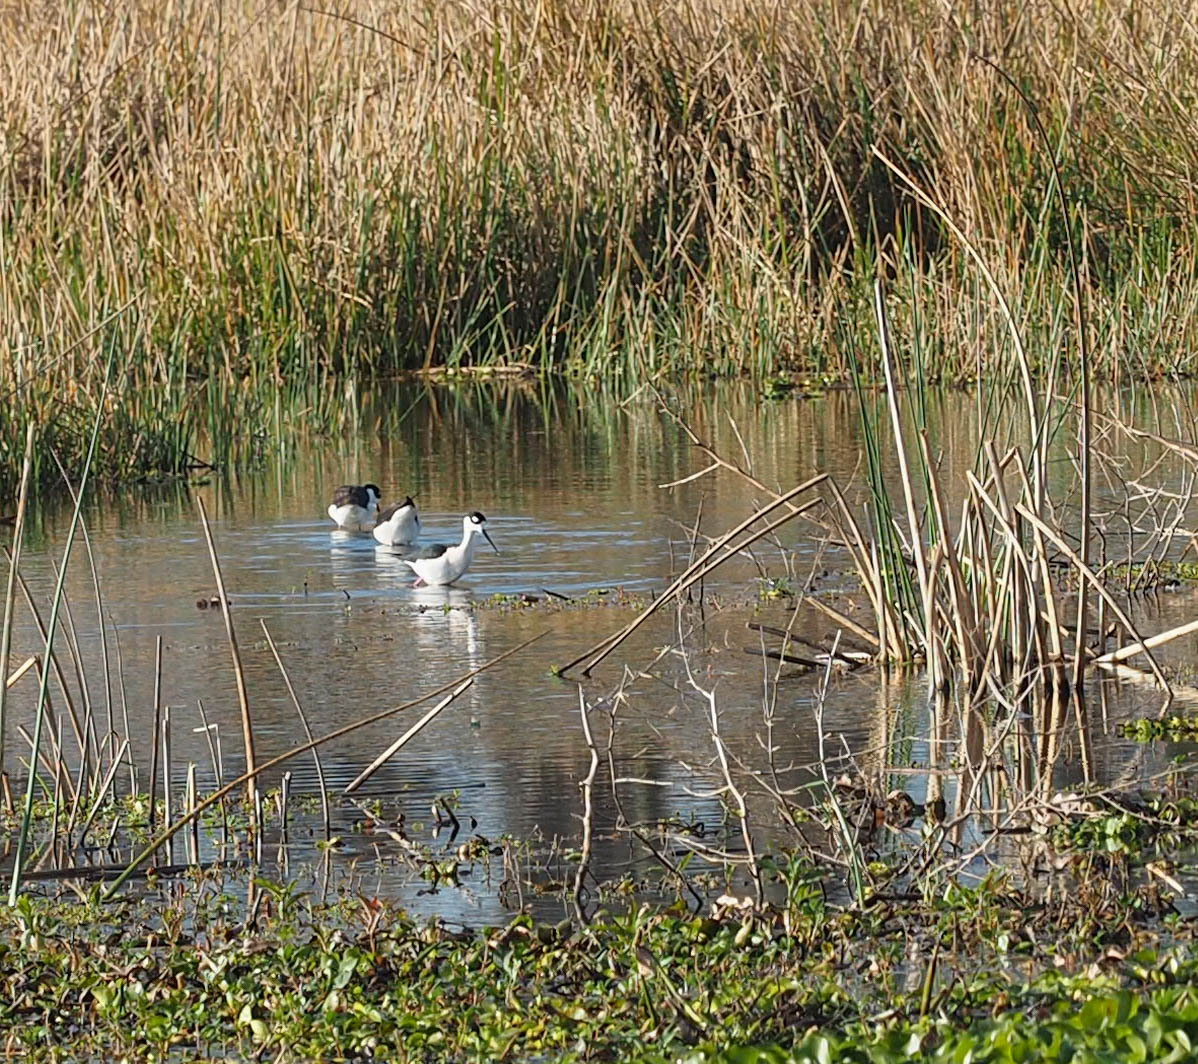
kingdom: Animalia
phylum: Chordata
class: Aves
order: Charadriiformes
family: Recurvirostridae
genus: Himantopus
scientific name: Himantopus mexicanus
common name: Black-necked stilt
